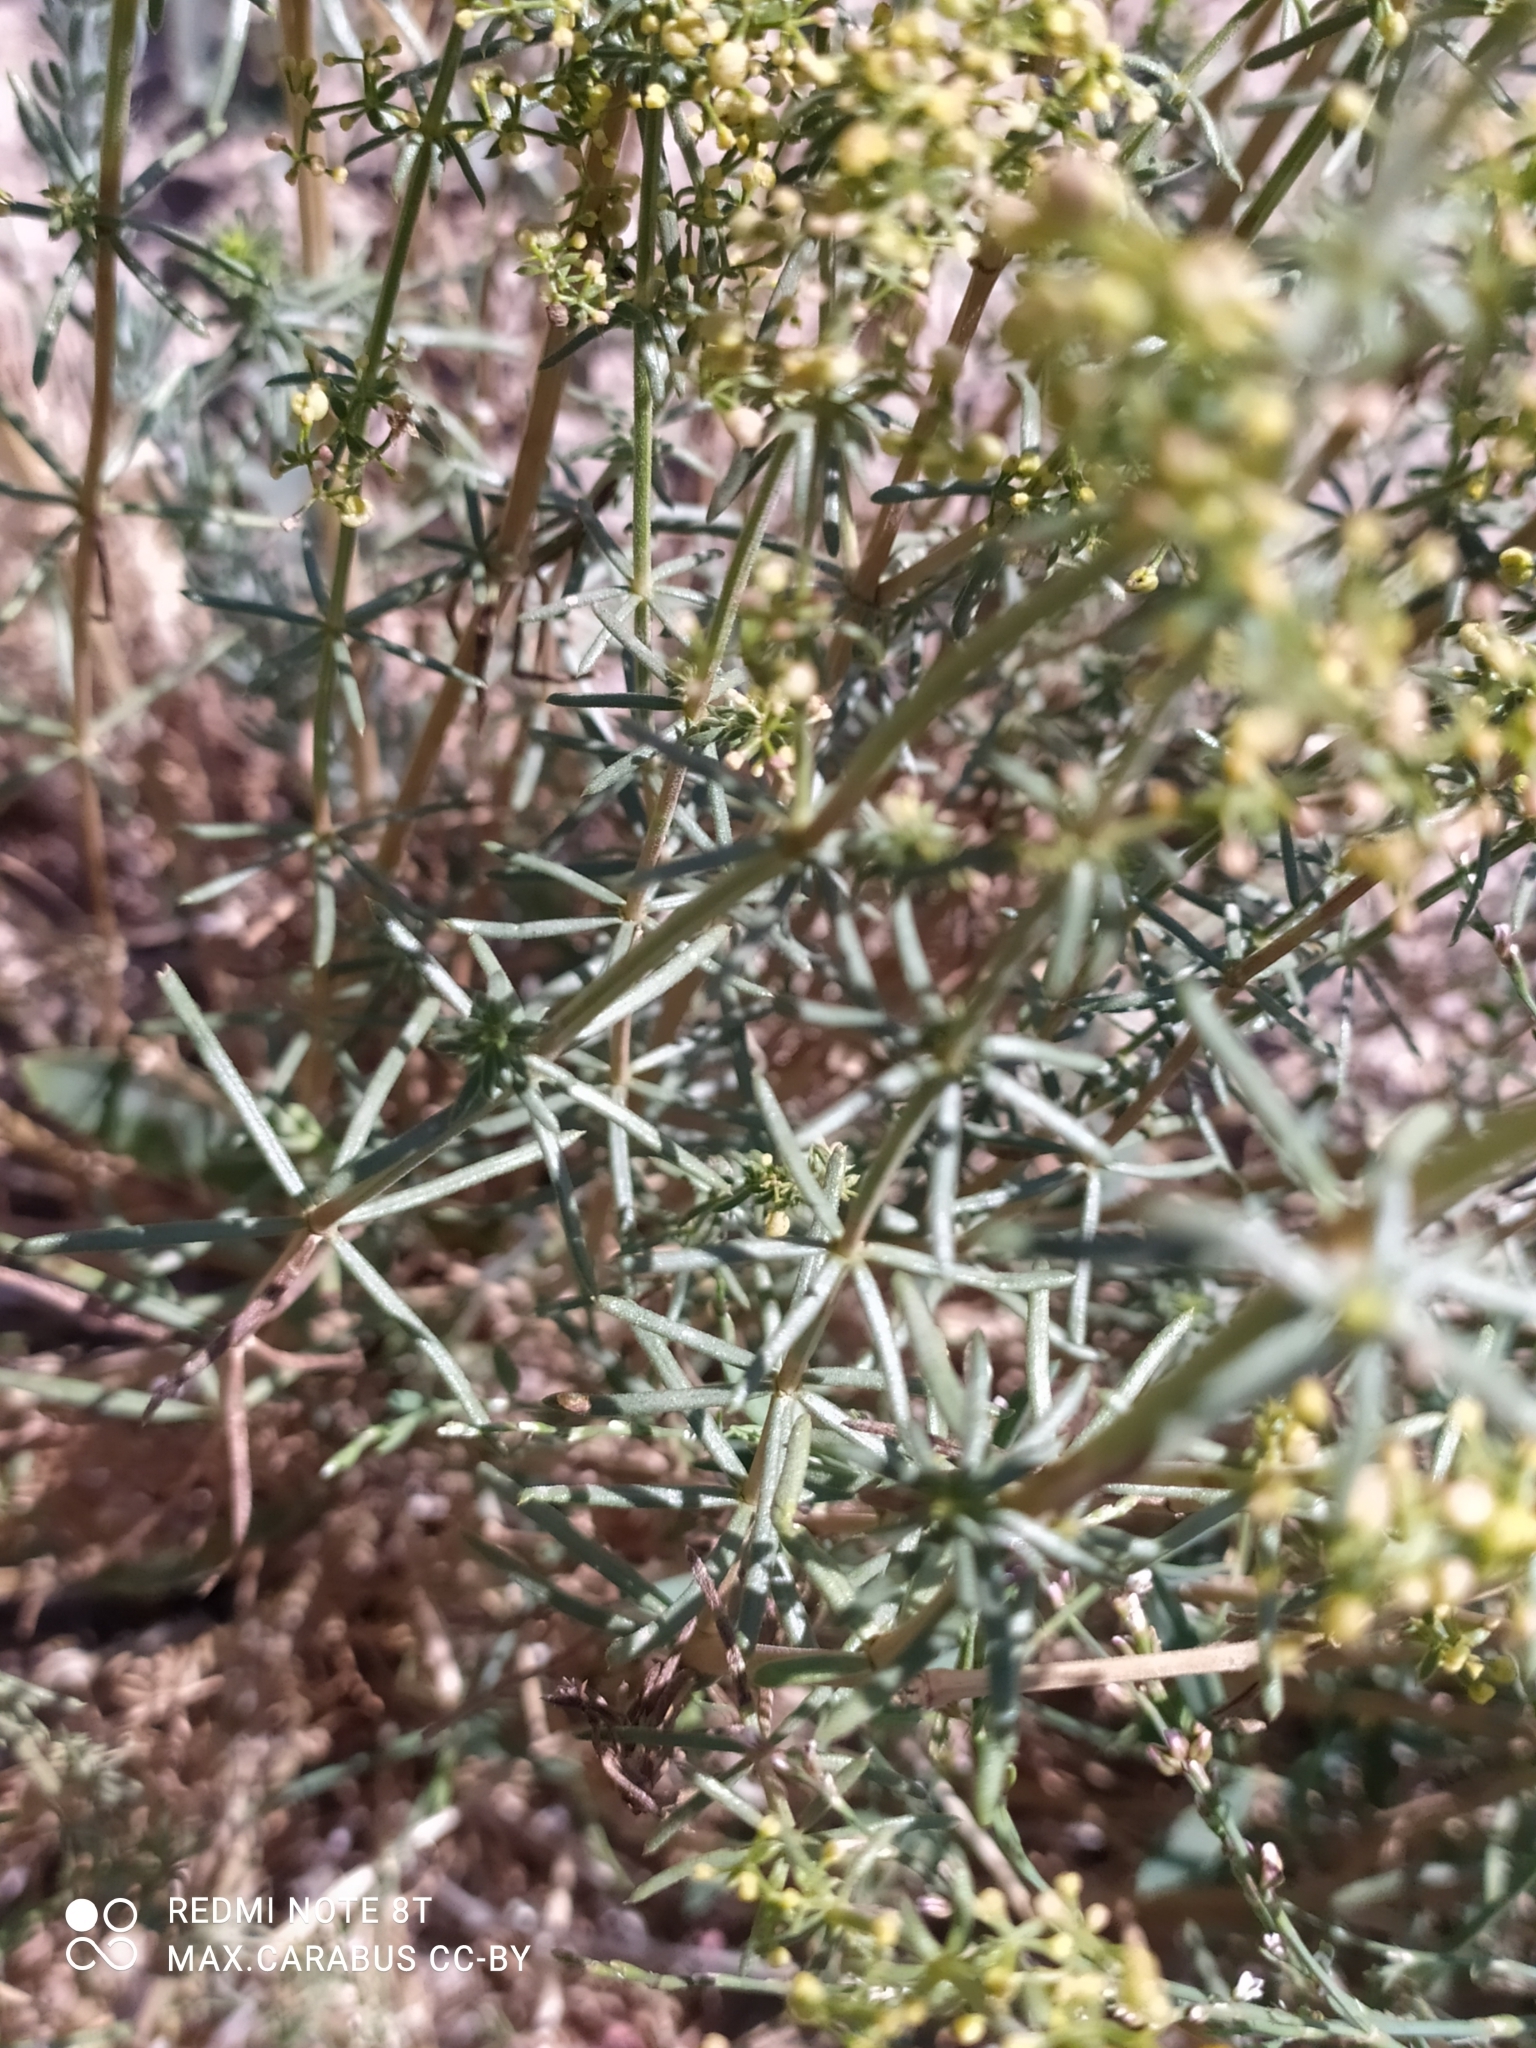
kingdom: Plantae
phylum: Tracheophyta
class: Magnoliopsida
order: Gentianales
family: Rubiaceae
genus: Galium
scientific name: Galium verum
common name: Lady's bedstraw
